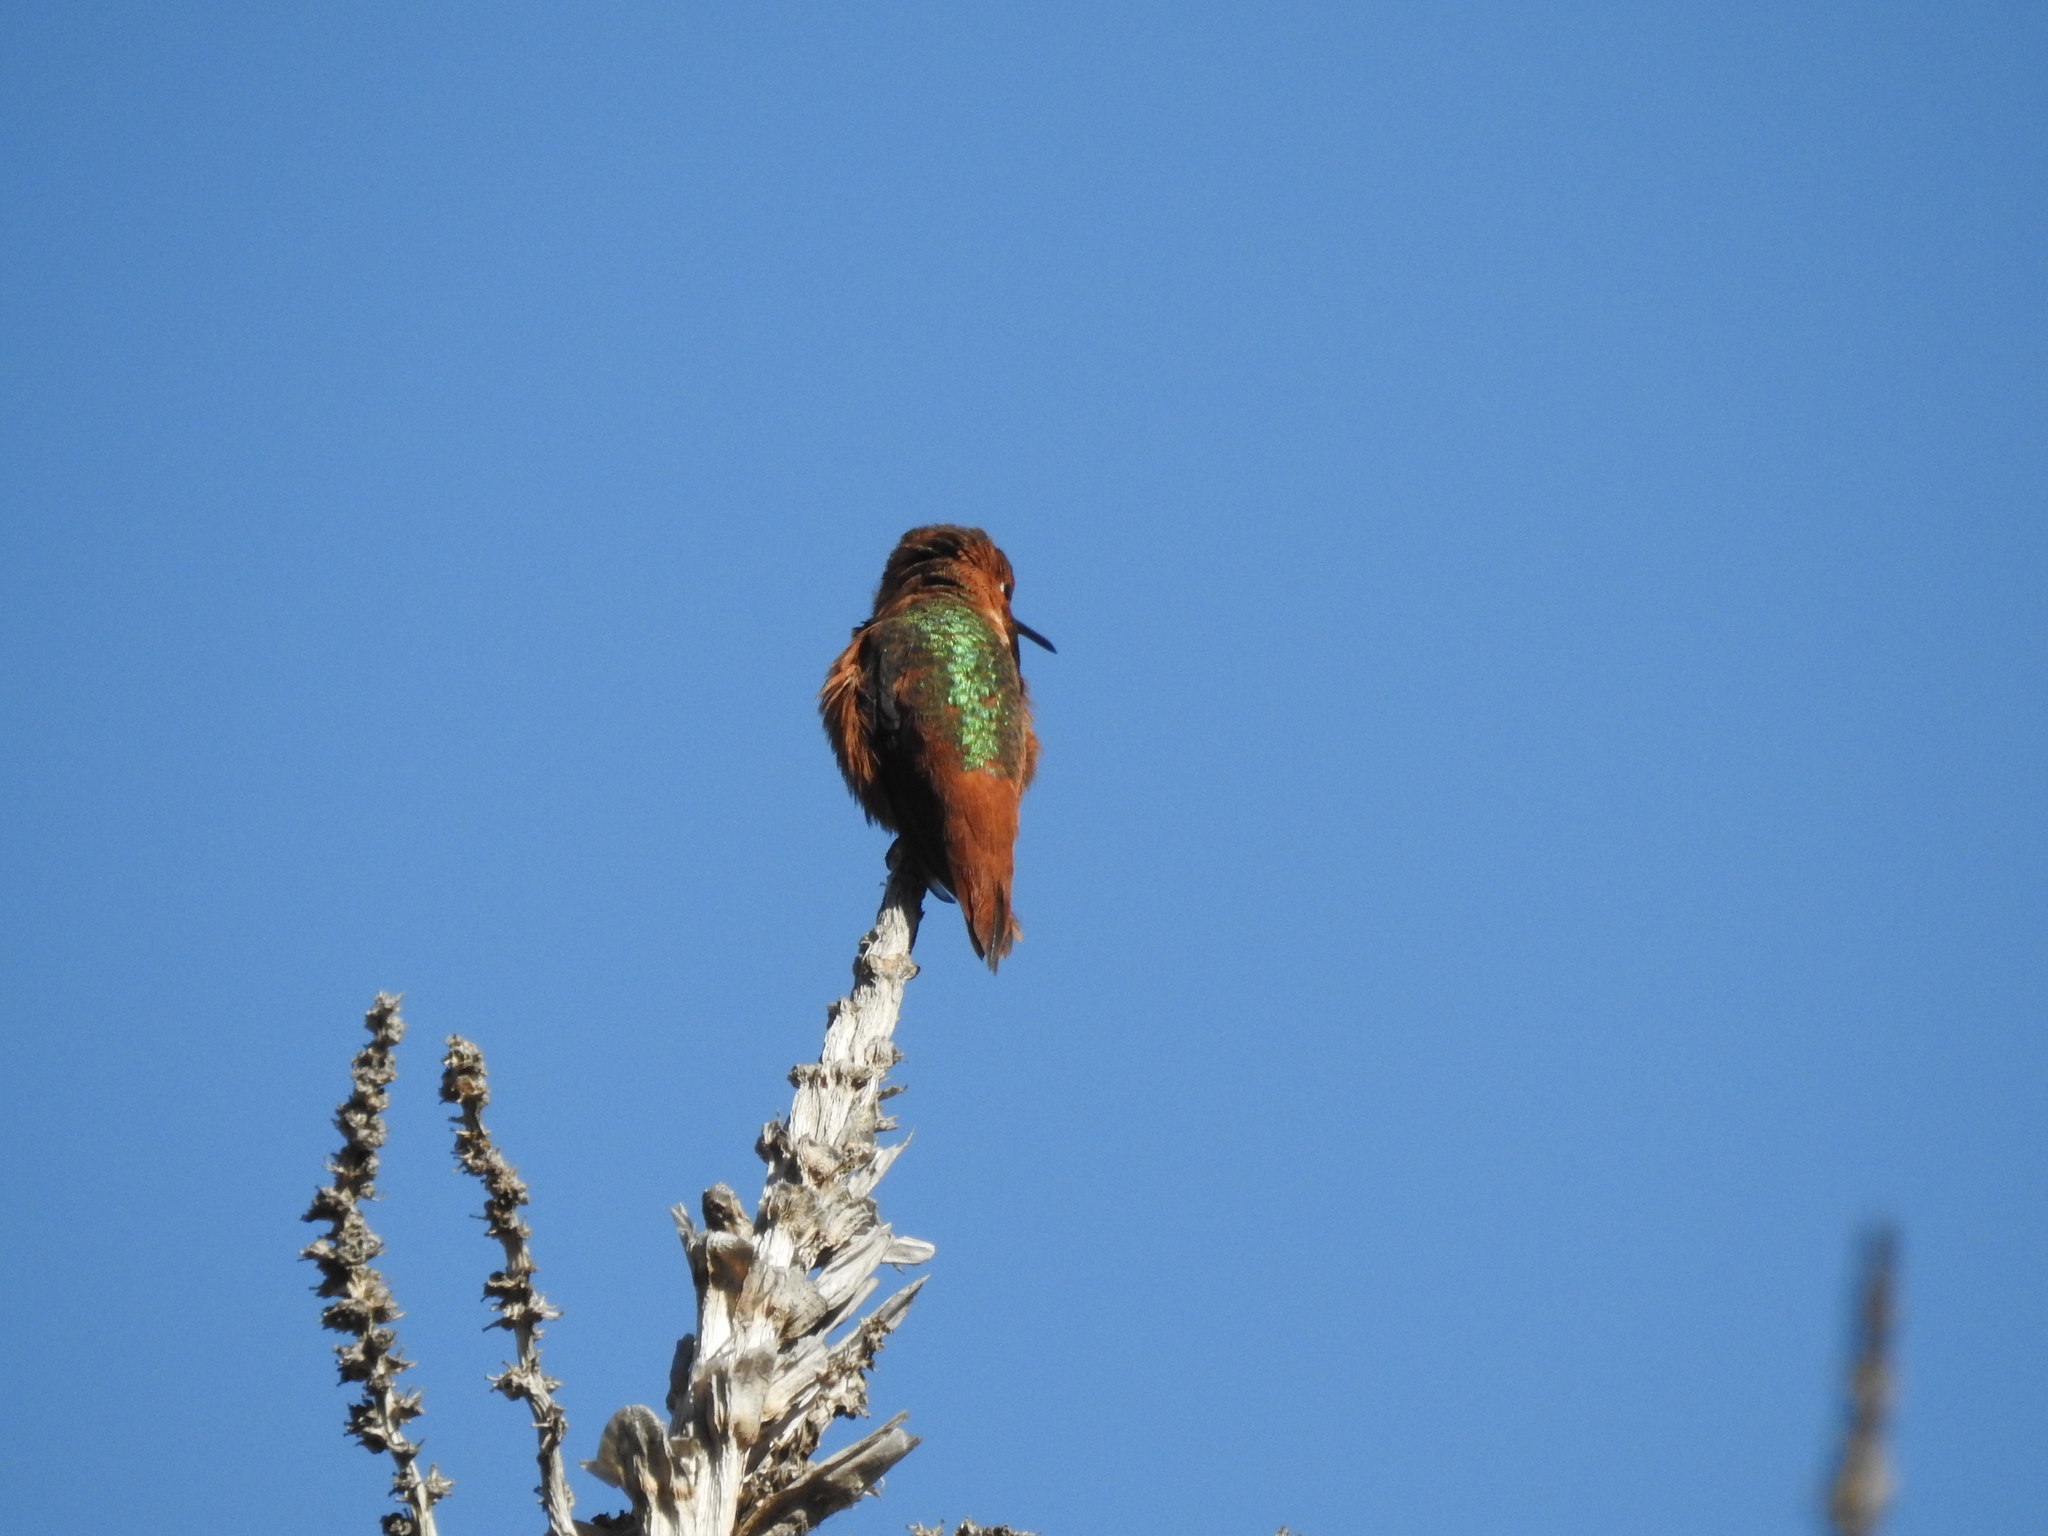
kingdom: Animalia
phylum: Chordata
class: Aves
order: Apodiformes
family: Trochilidae
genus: Selasphorus
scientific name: Selasphorus sasin
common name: Allen's hummingbird
